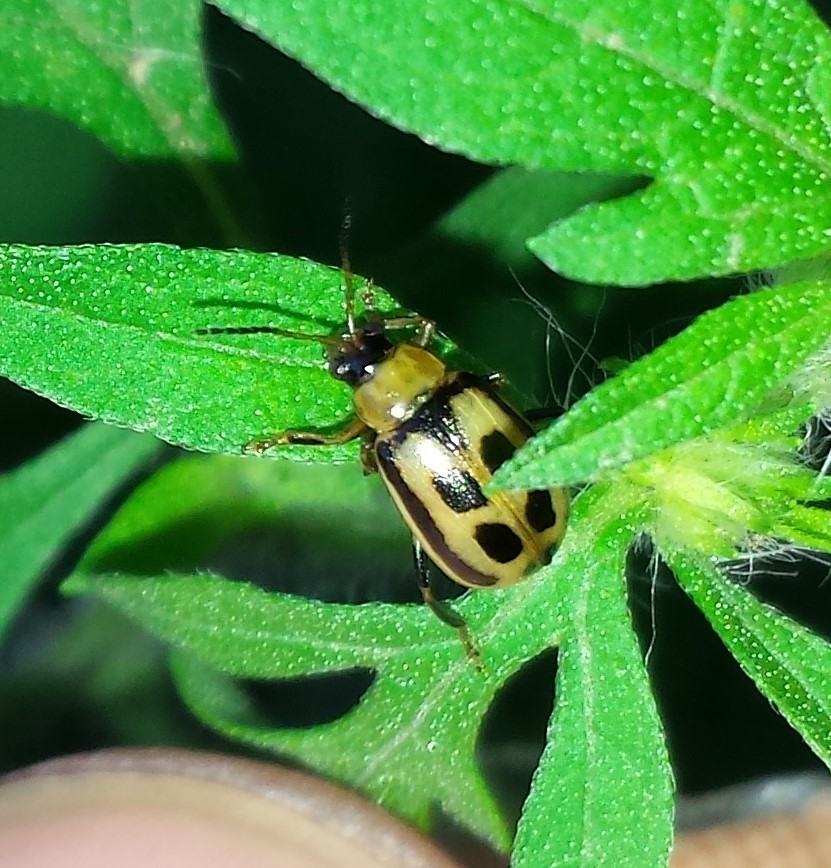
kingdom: Animalia
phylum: Arthropoda
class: Insecta
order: Coleoptera
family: Chrysomelidae
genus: Cerotoma
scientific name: Cerotoma trifurcata
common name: Bean leaf beetle
